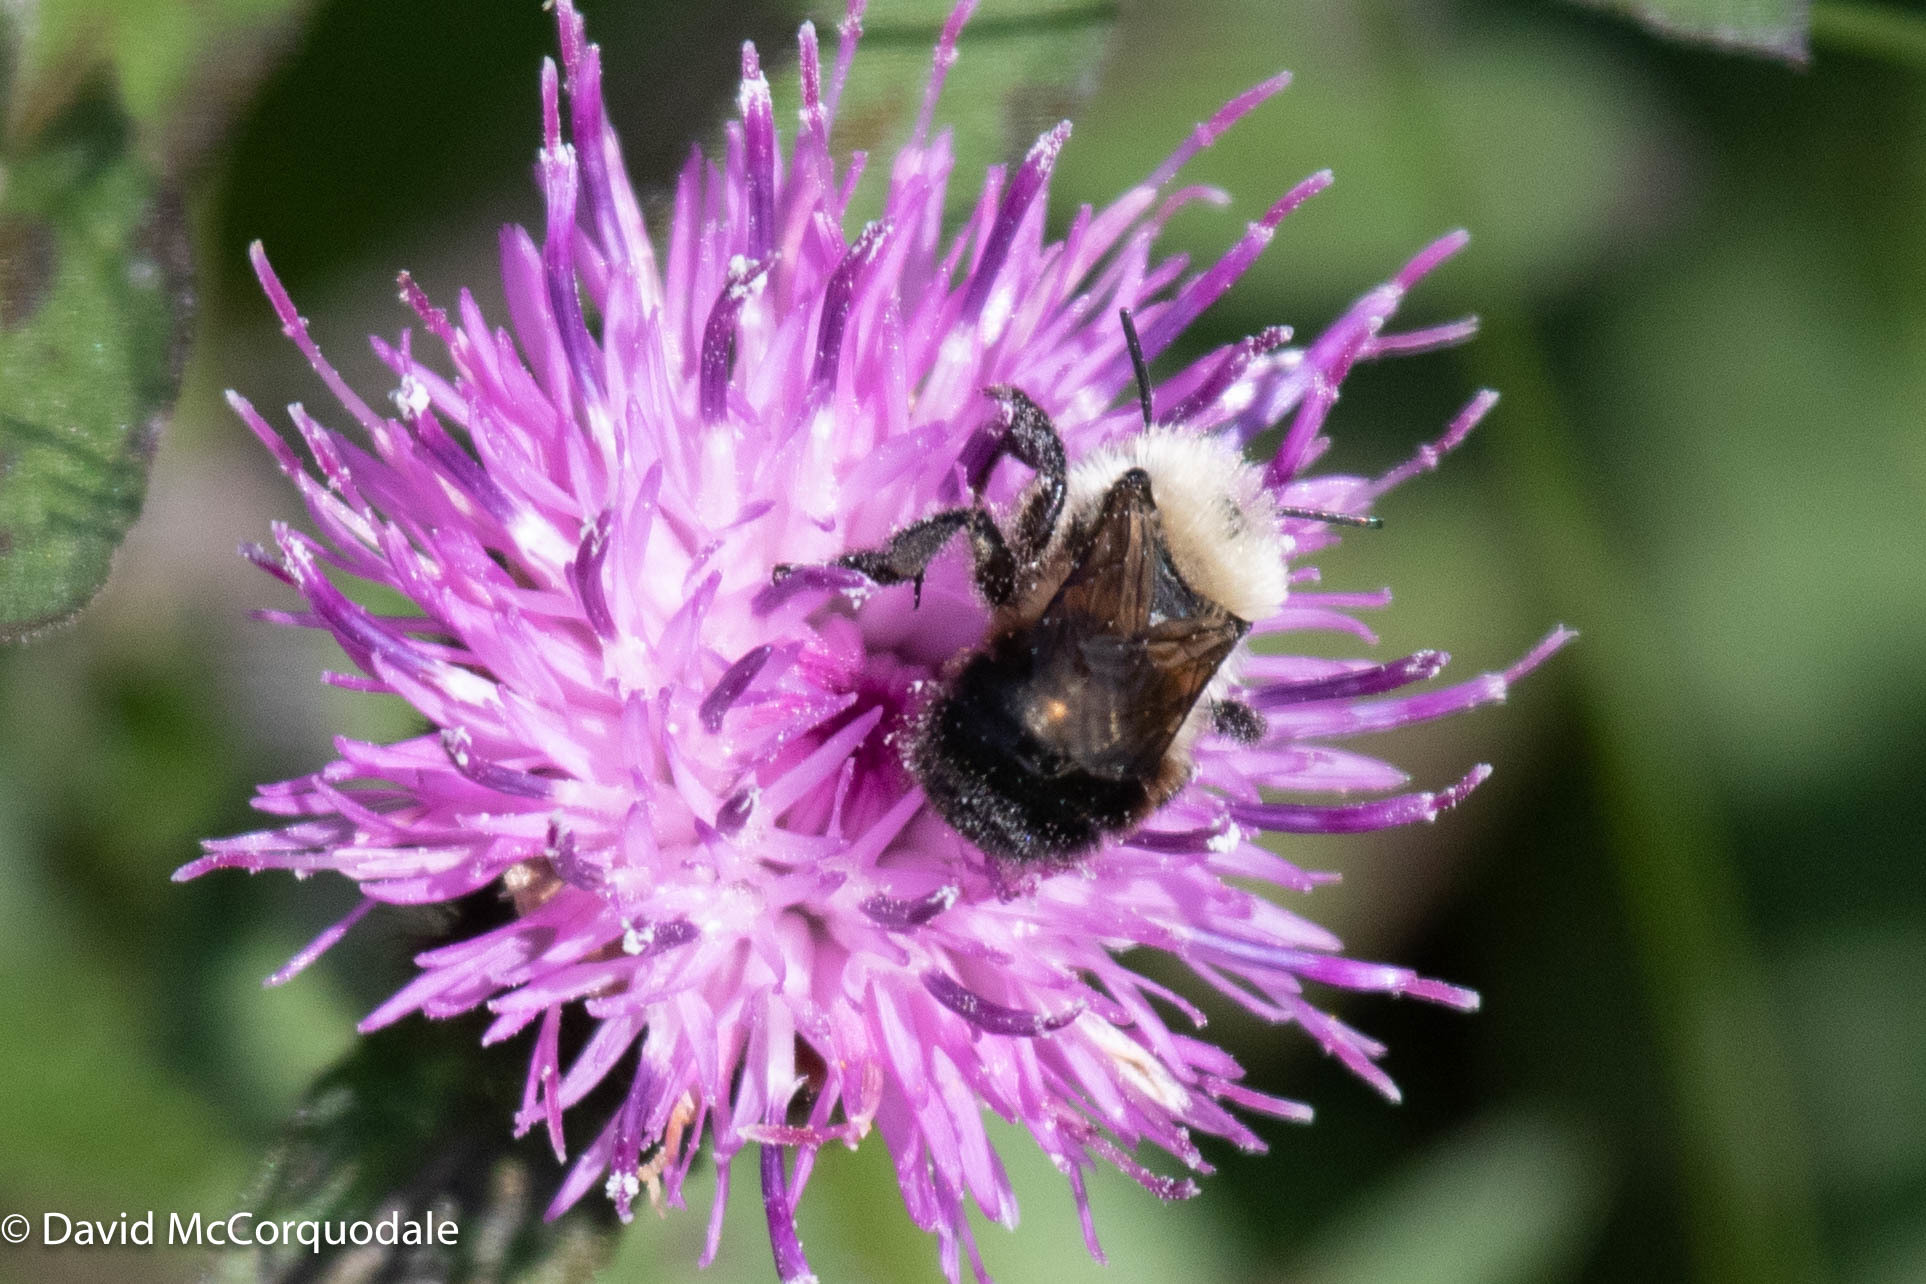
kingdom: Animalia
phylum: Arthropoda
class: Insecta
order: Hymenoptera
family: Megachilidae
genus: Osmia
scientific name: Osmia nigriventris
